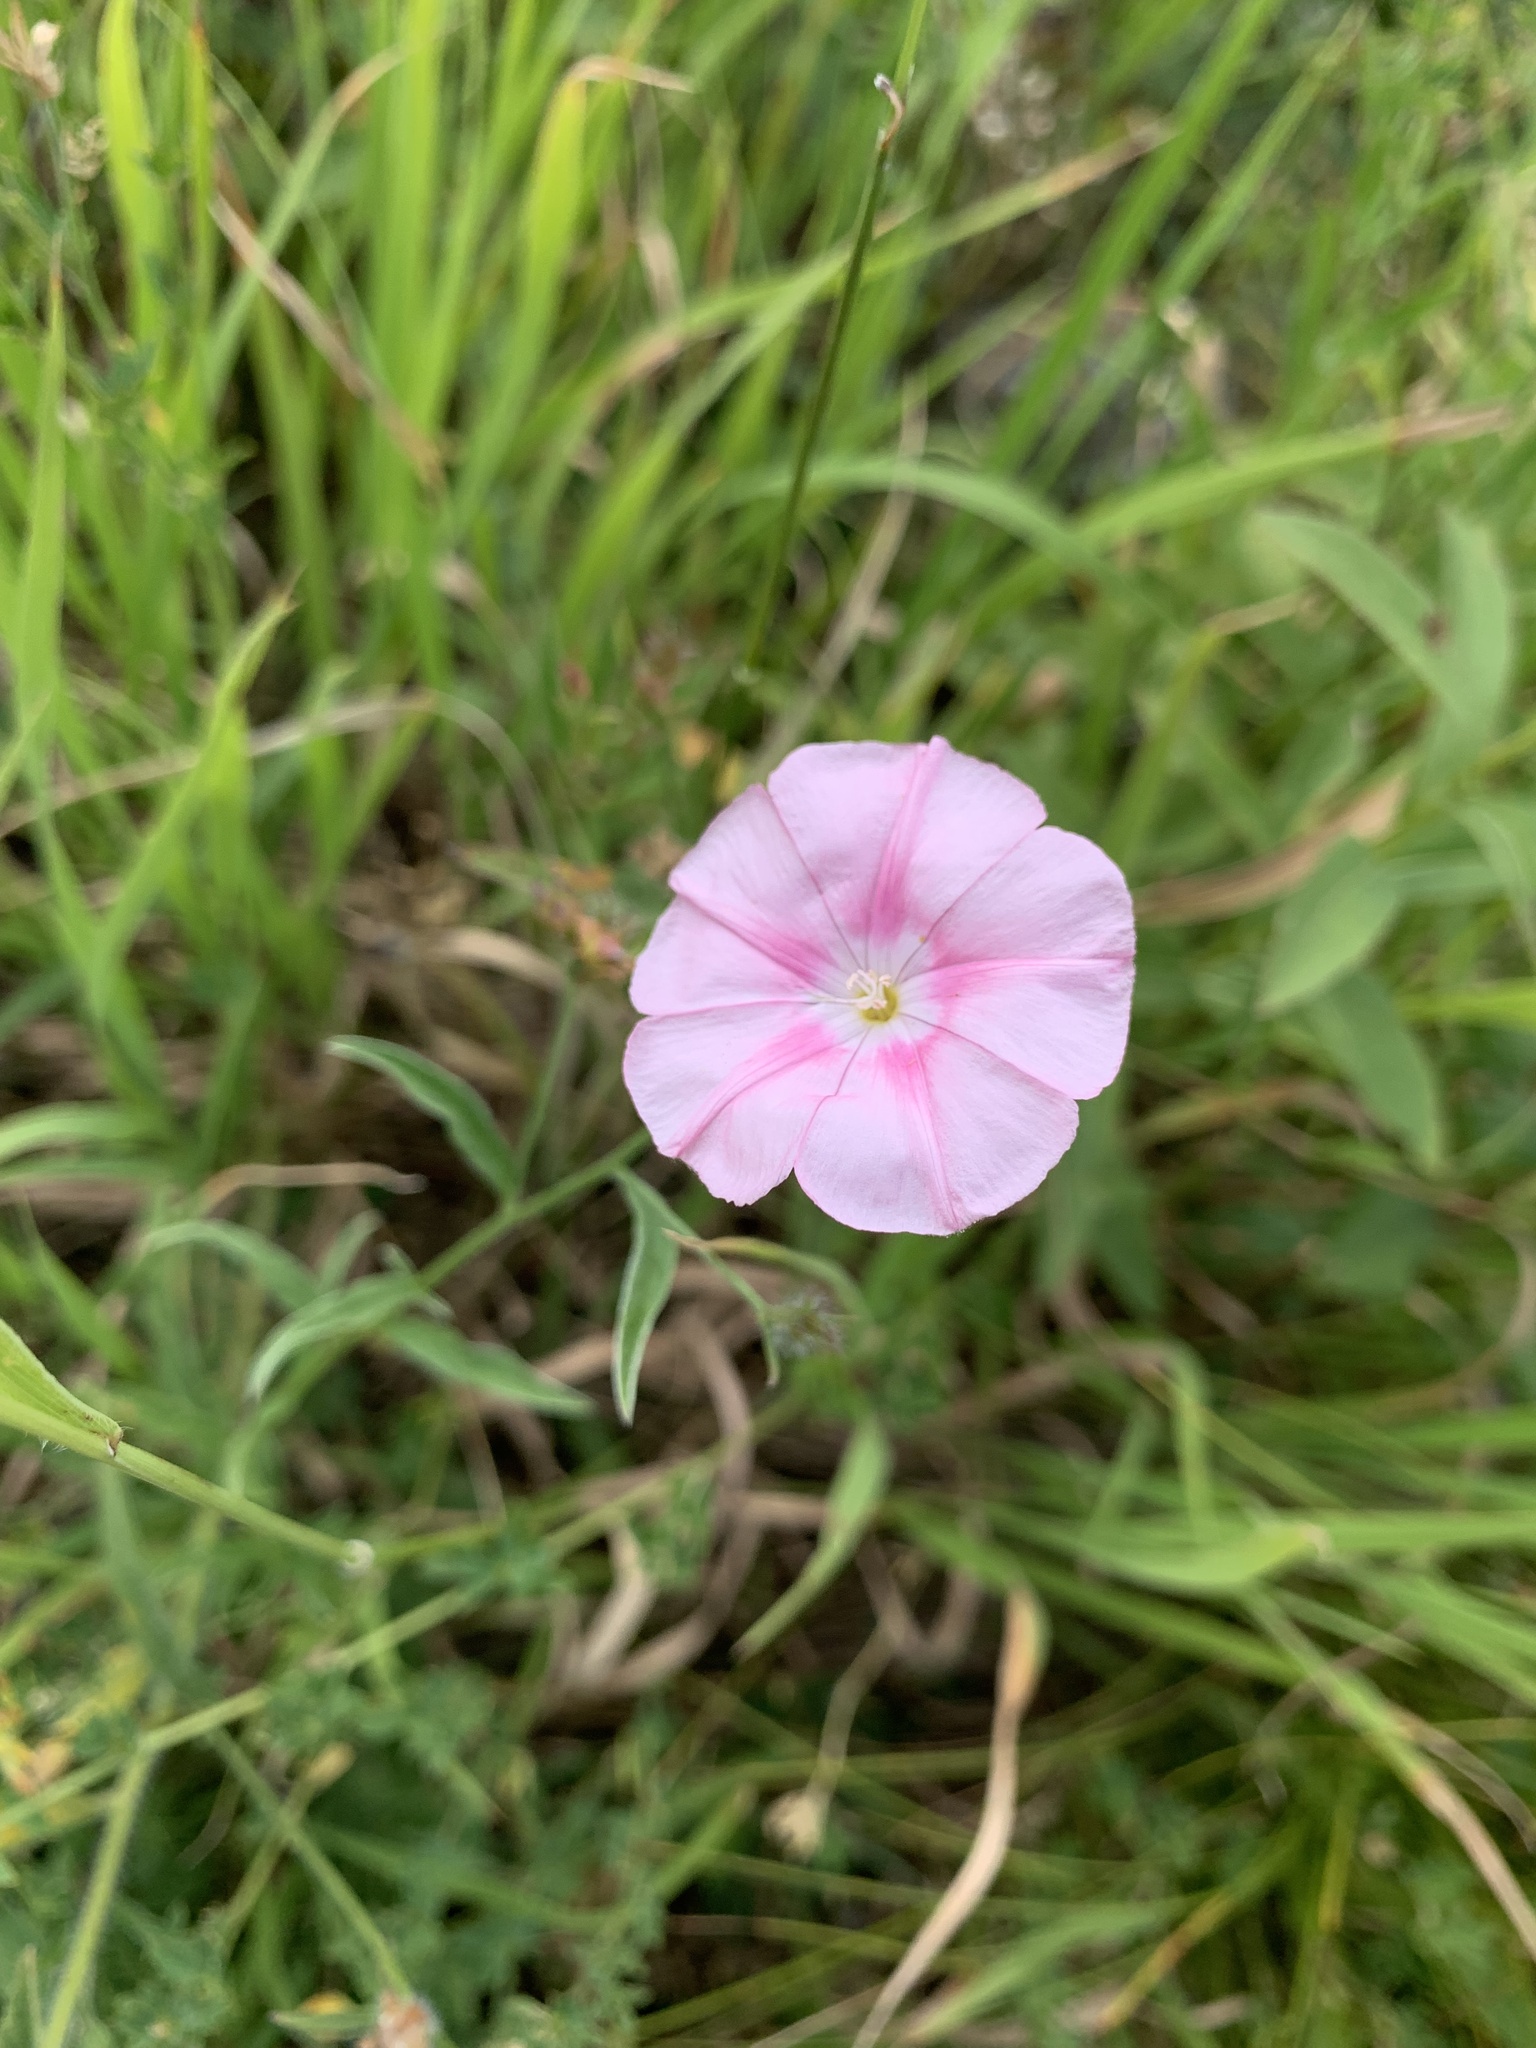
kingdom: Plantae
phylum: Tracheophyta
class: Magnoliopsida
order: Solanales
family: Convolvulaceae
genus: Convolvulus
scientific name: Convolvulus cantabrica
